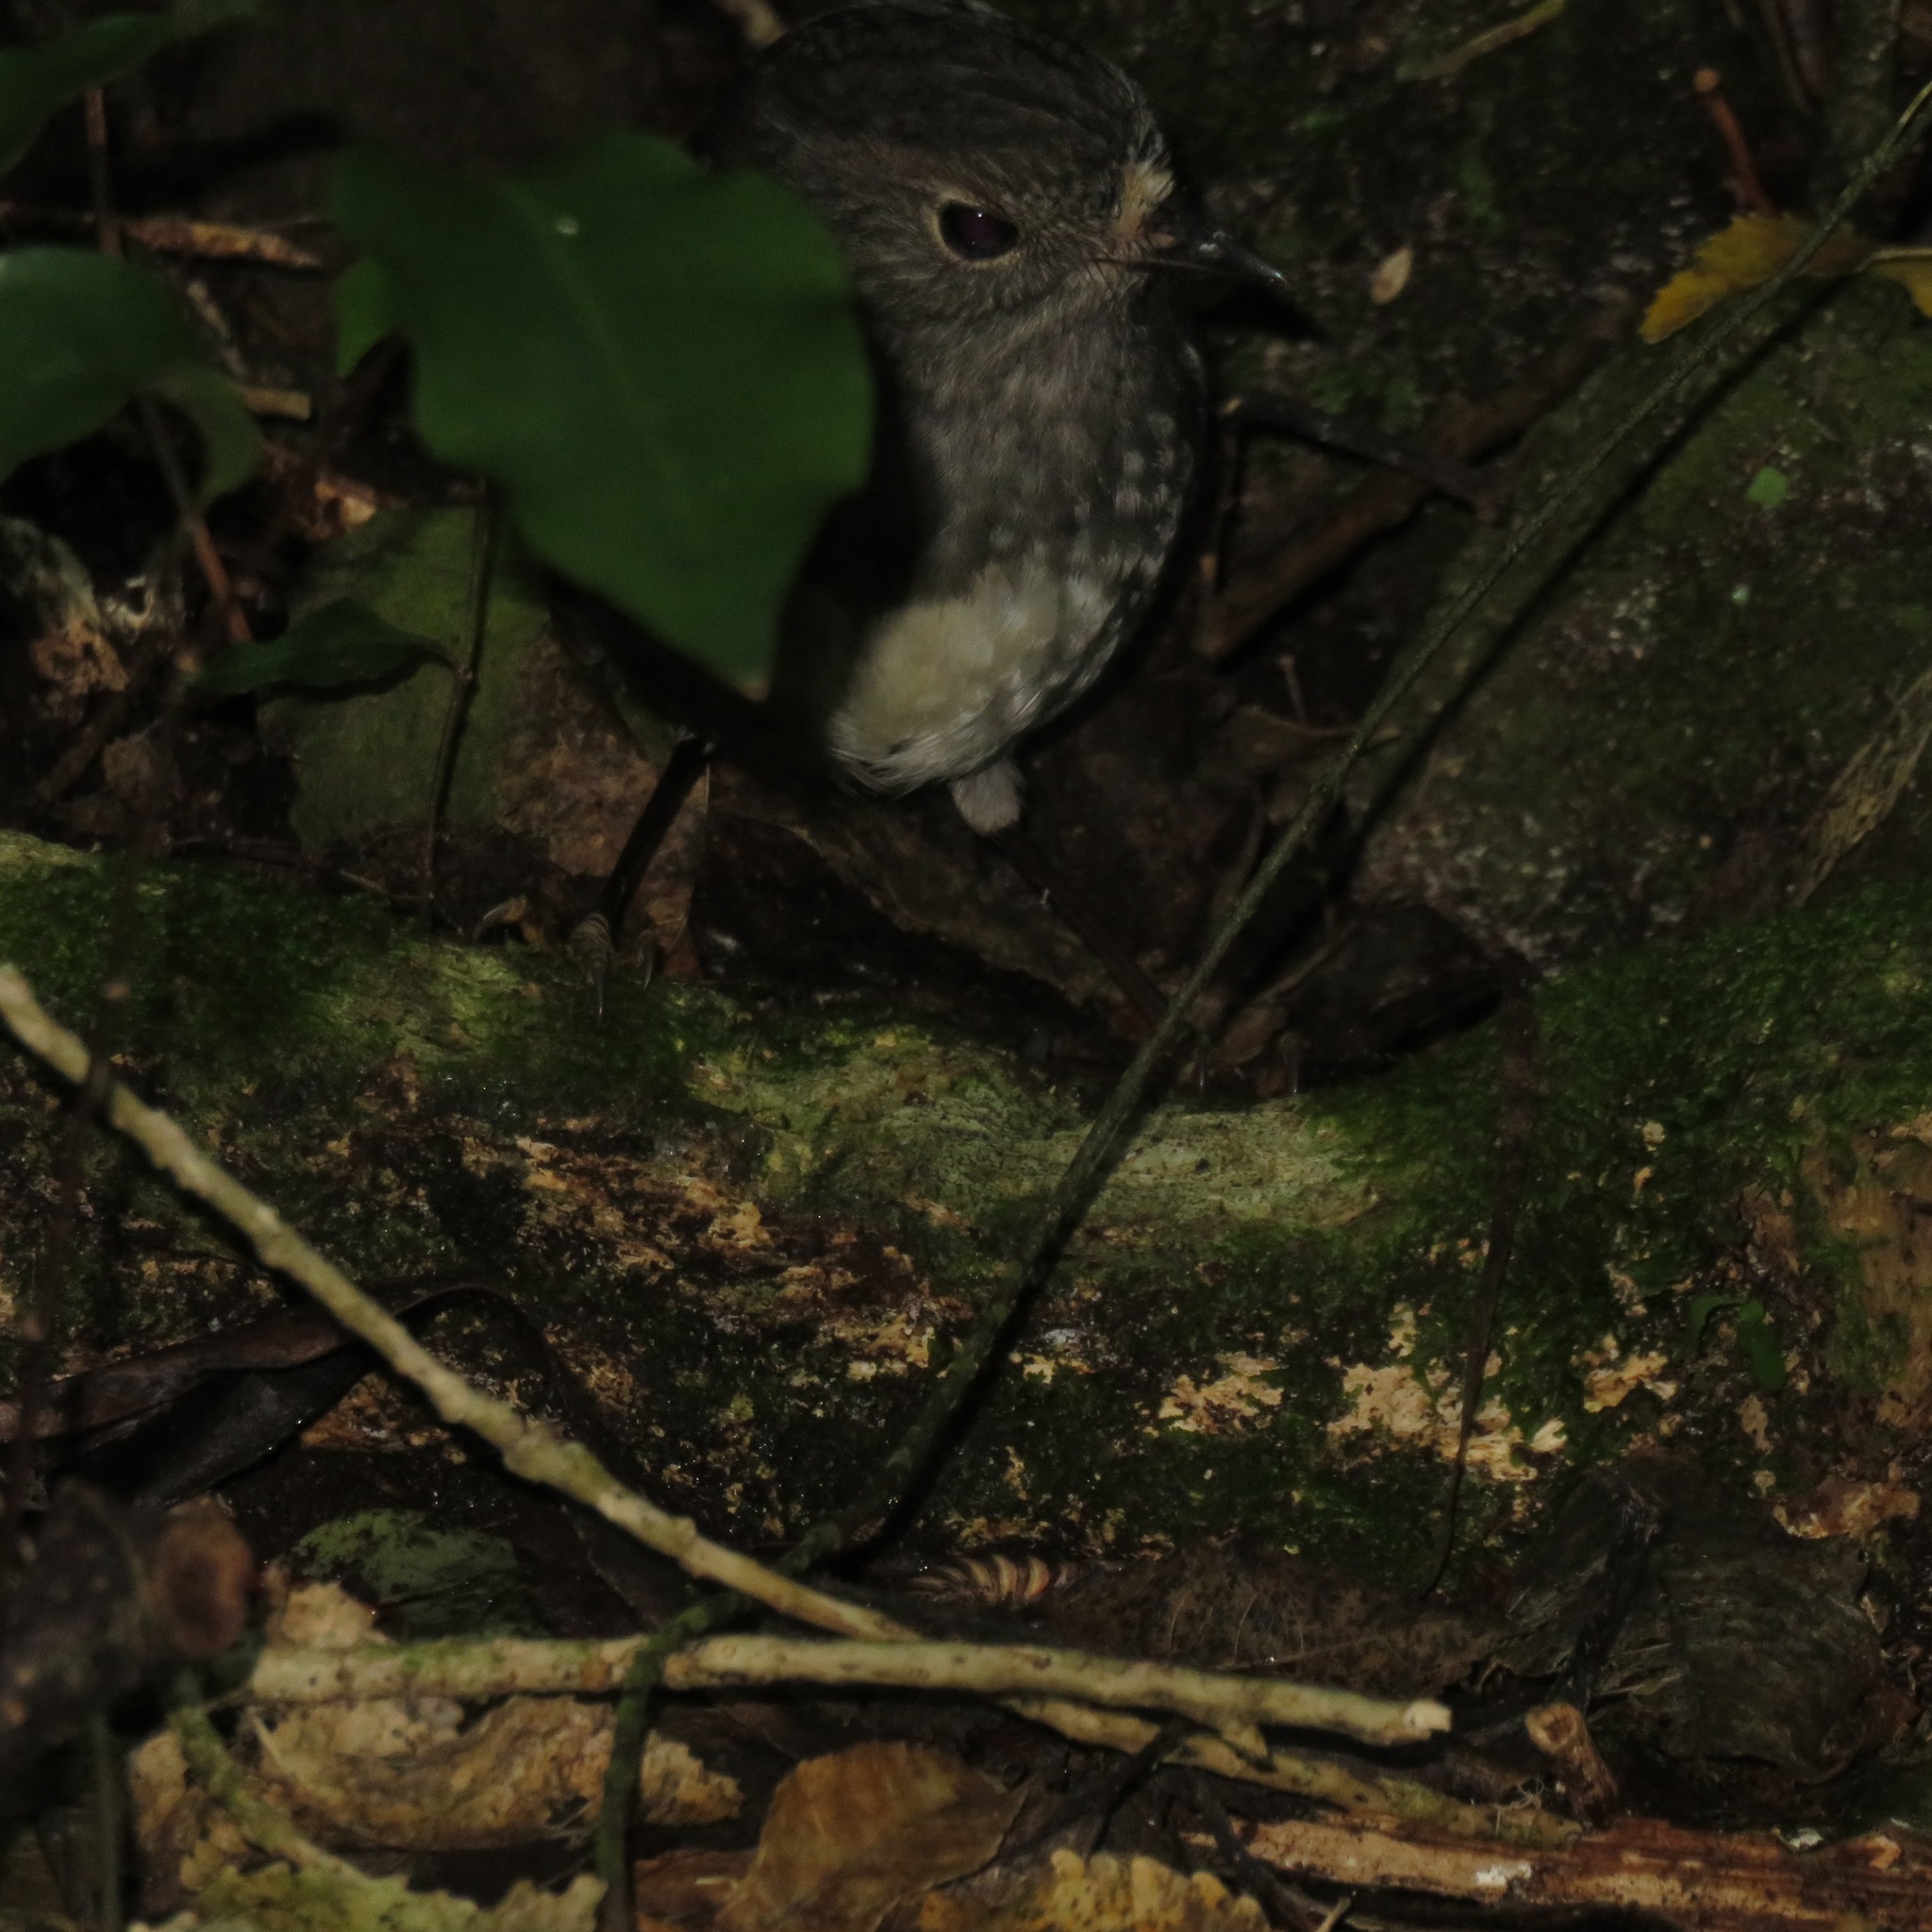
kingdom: Animalia
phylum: Chordata
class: Aves
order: Passeriformes
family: Petroicidae
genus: Petroica
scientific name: Petroica australis
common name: New zealand robin
